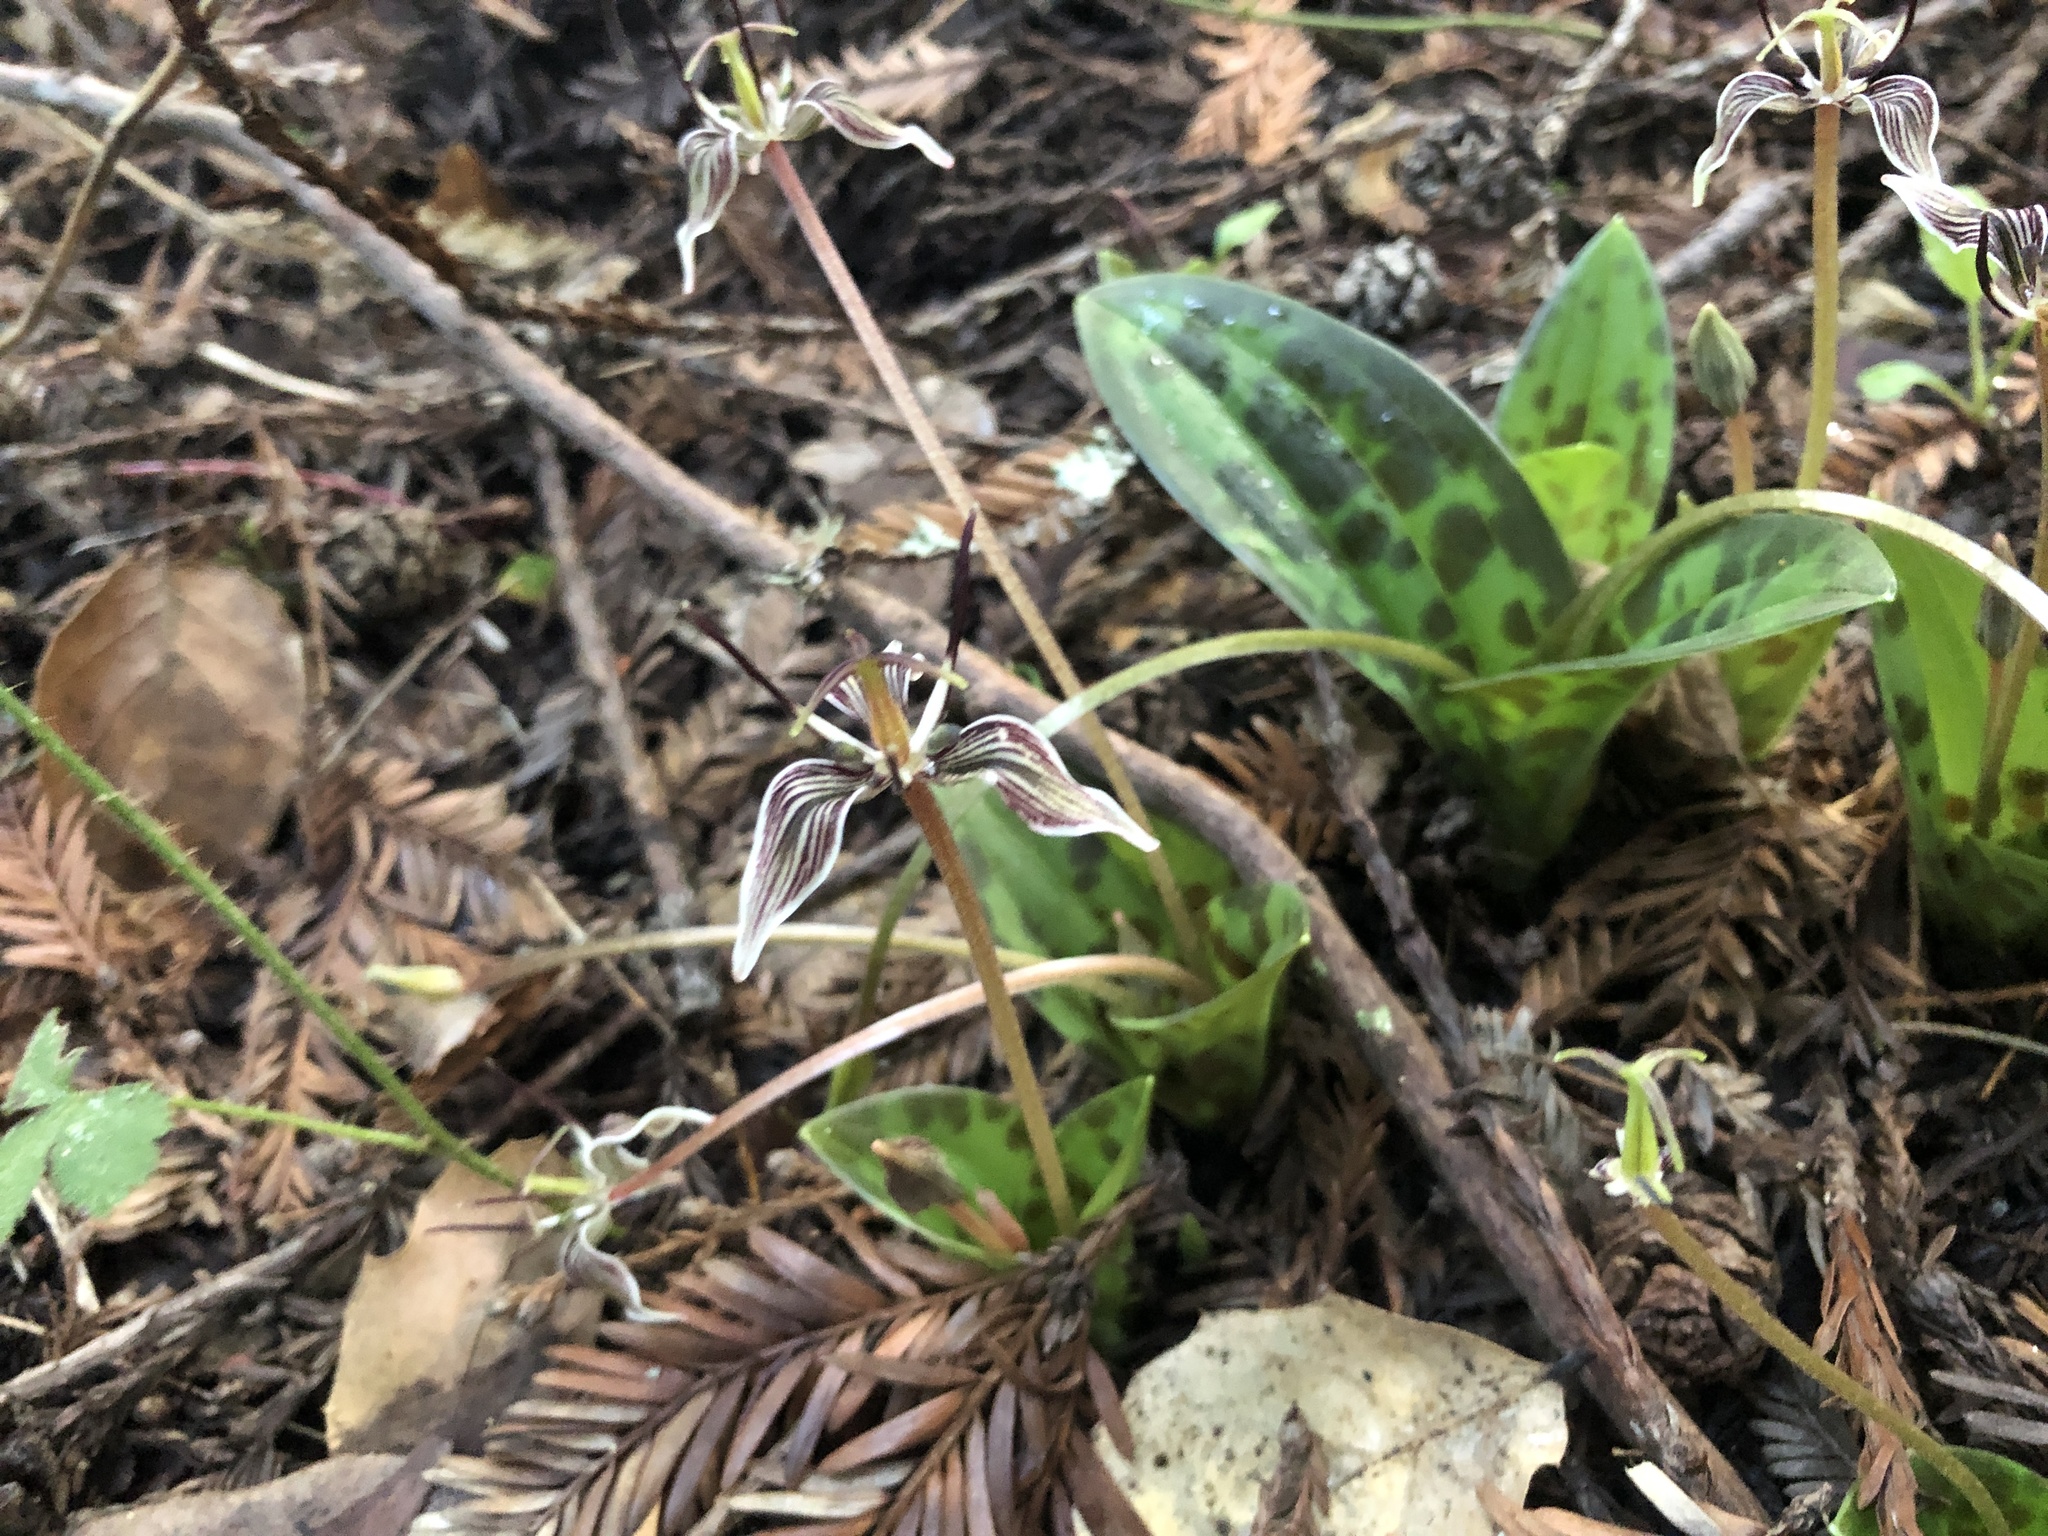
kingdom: Plantae
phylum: Tracheophyta
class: Liliopsida
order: Liliales
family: Liliaceae
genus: Scoliopus
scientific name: Scoliopus bigelovii
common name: Foetid adder's-tongue
